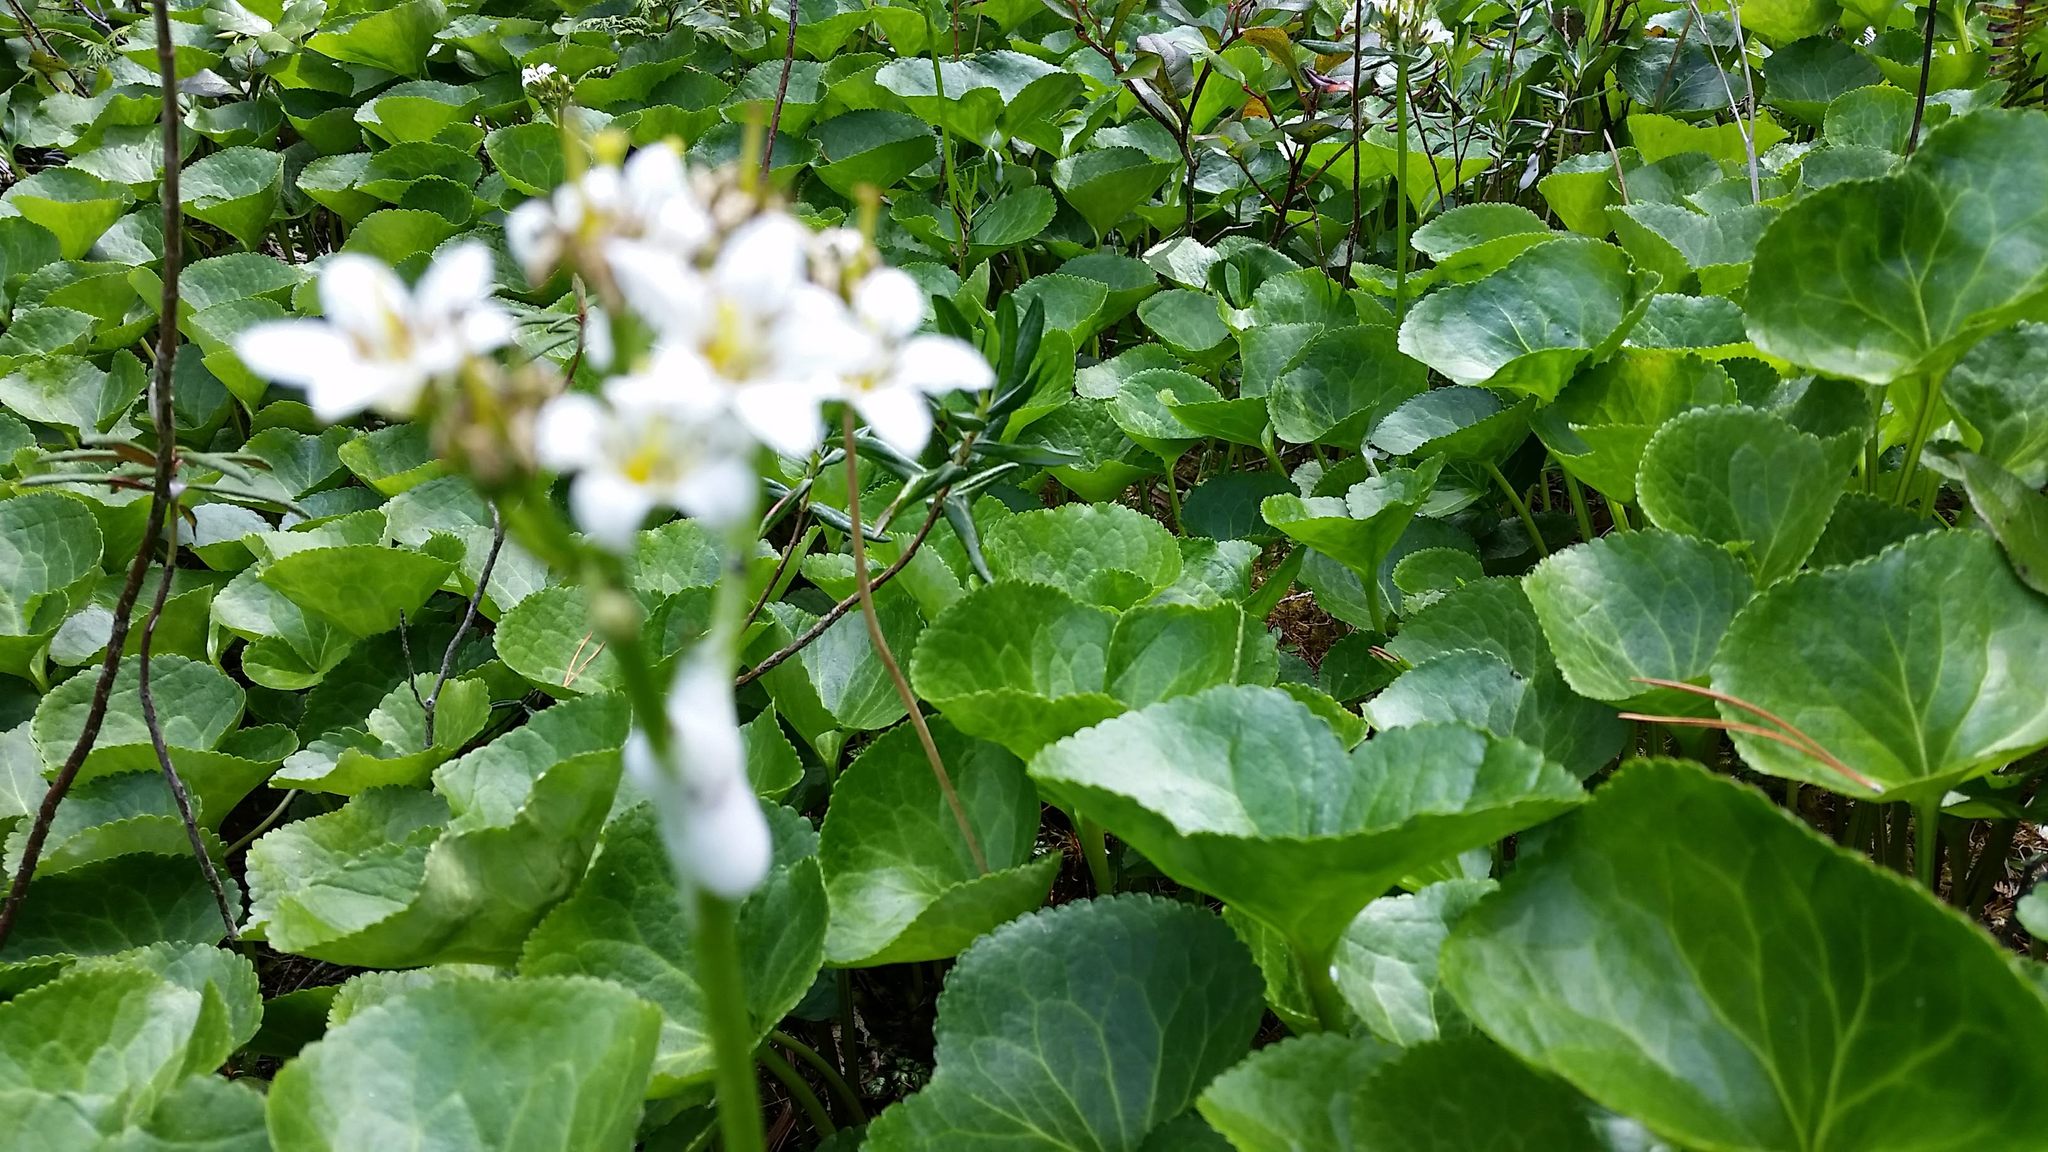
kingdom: Plantae
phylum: Tracheophyta
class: Magnoliopsida
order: Asterales
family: Menyanthaceae
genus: Nephrophyllidium
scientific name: Nephrophyllidium crista-galli
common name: Deer-cabbage
